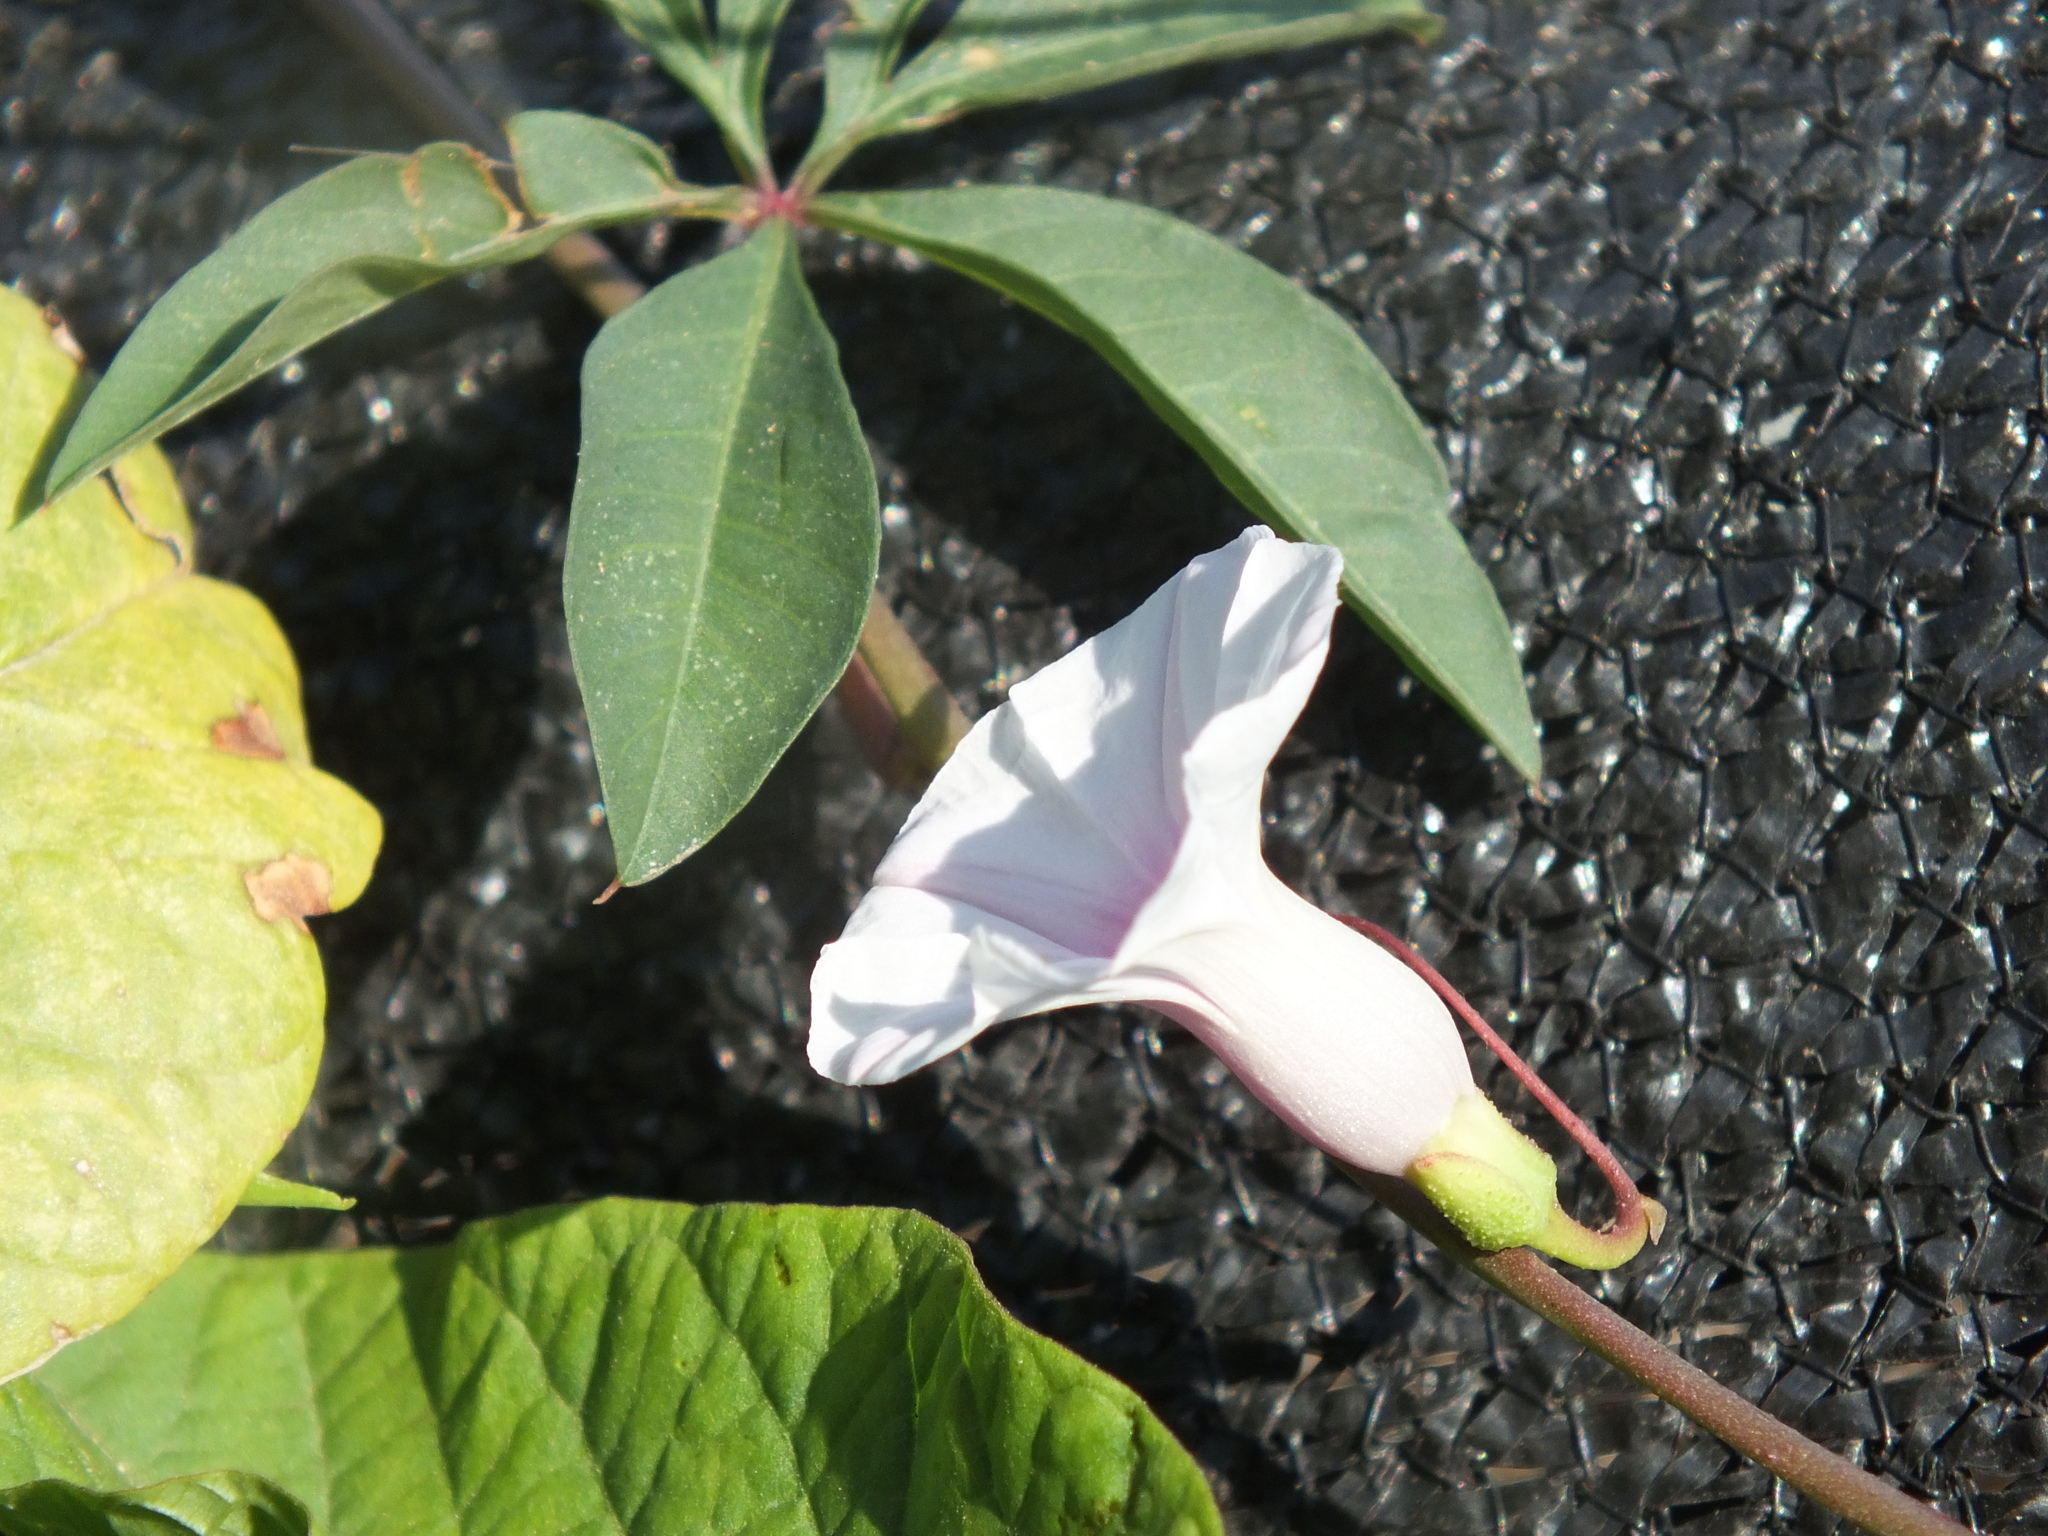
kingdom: Plantae
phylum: Tracheophyta
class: Magnoliopsida
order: Solanales
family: Convolvulaceae
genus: Ipomoea
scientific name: Ipomoea heptaphylla
